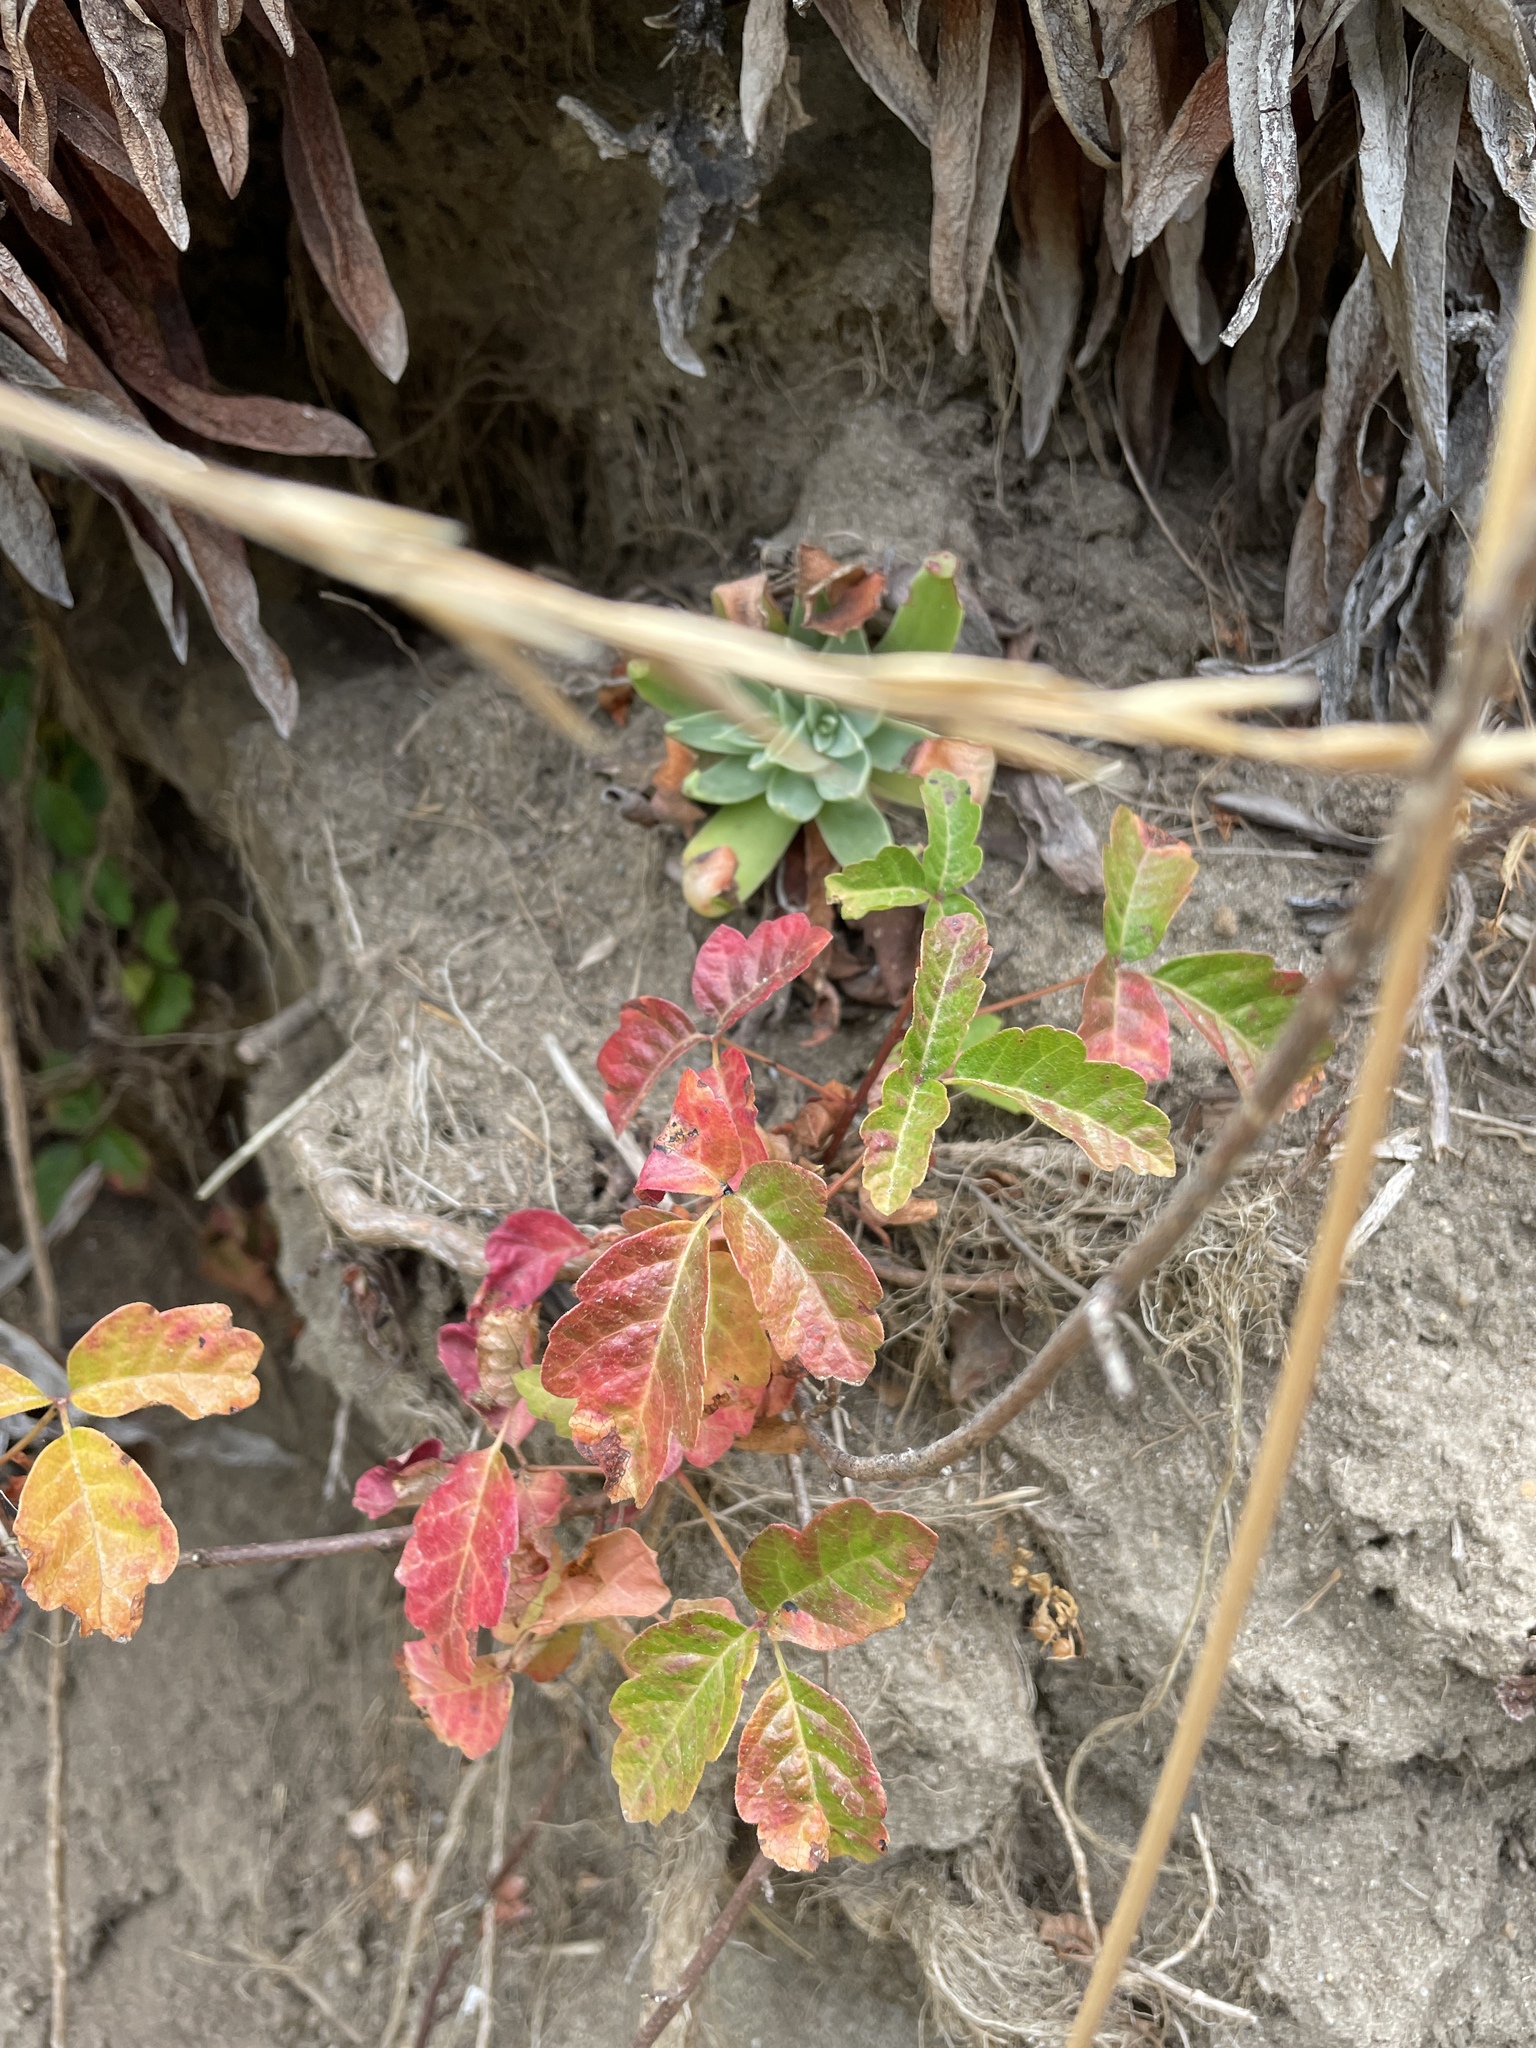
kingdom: Plantae
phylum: Tracheophyta
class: Magnoliopsida
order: Sapindales
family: Anacardiaceae
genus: Toxicodendron
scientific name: Toxicodendron diversilobum
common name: Pacific poison-oak
